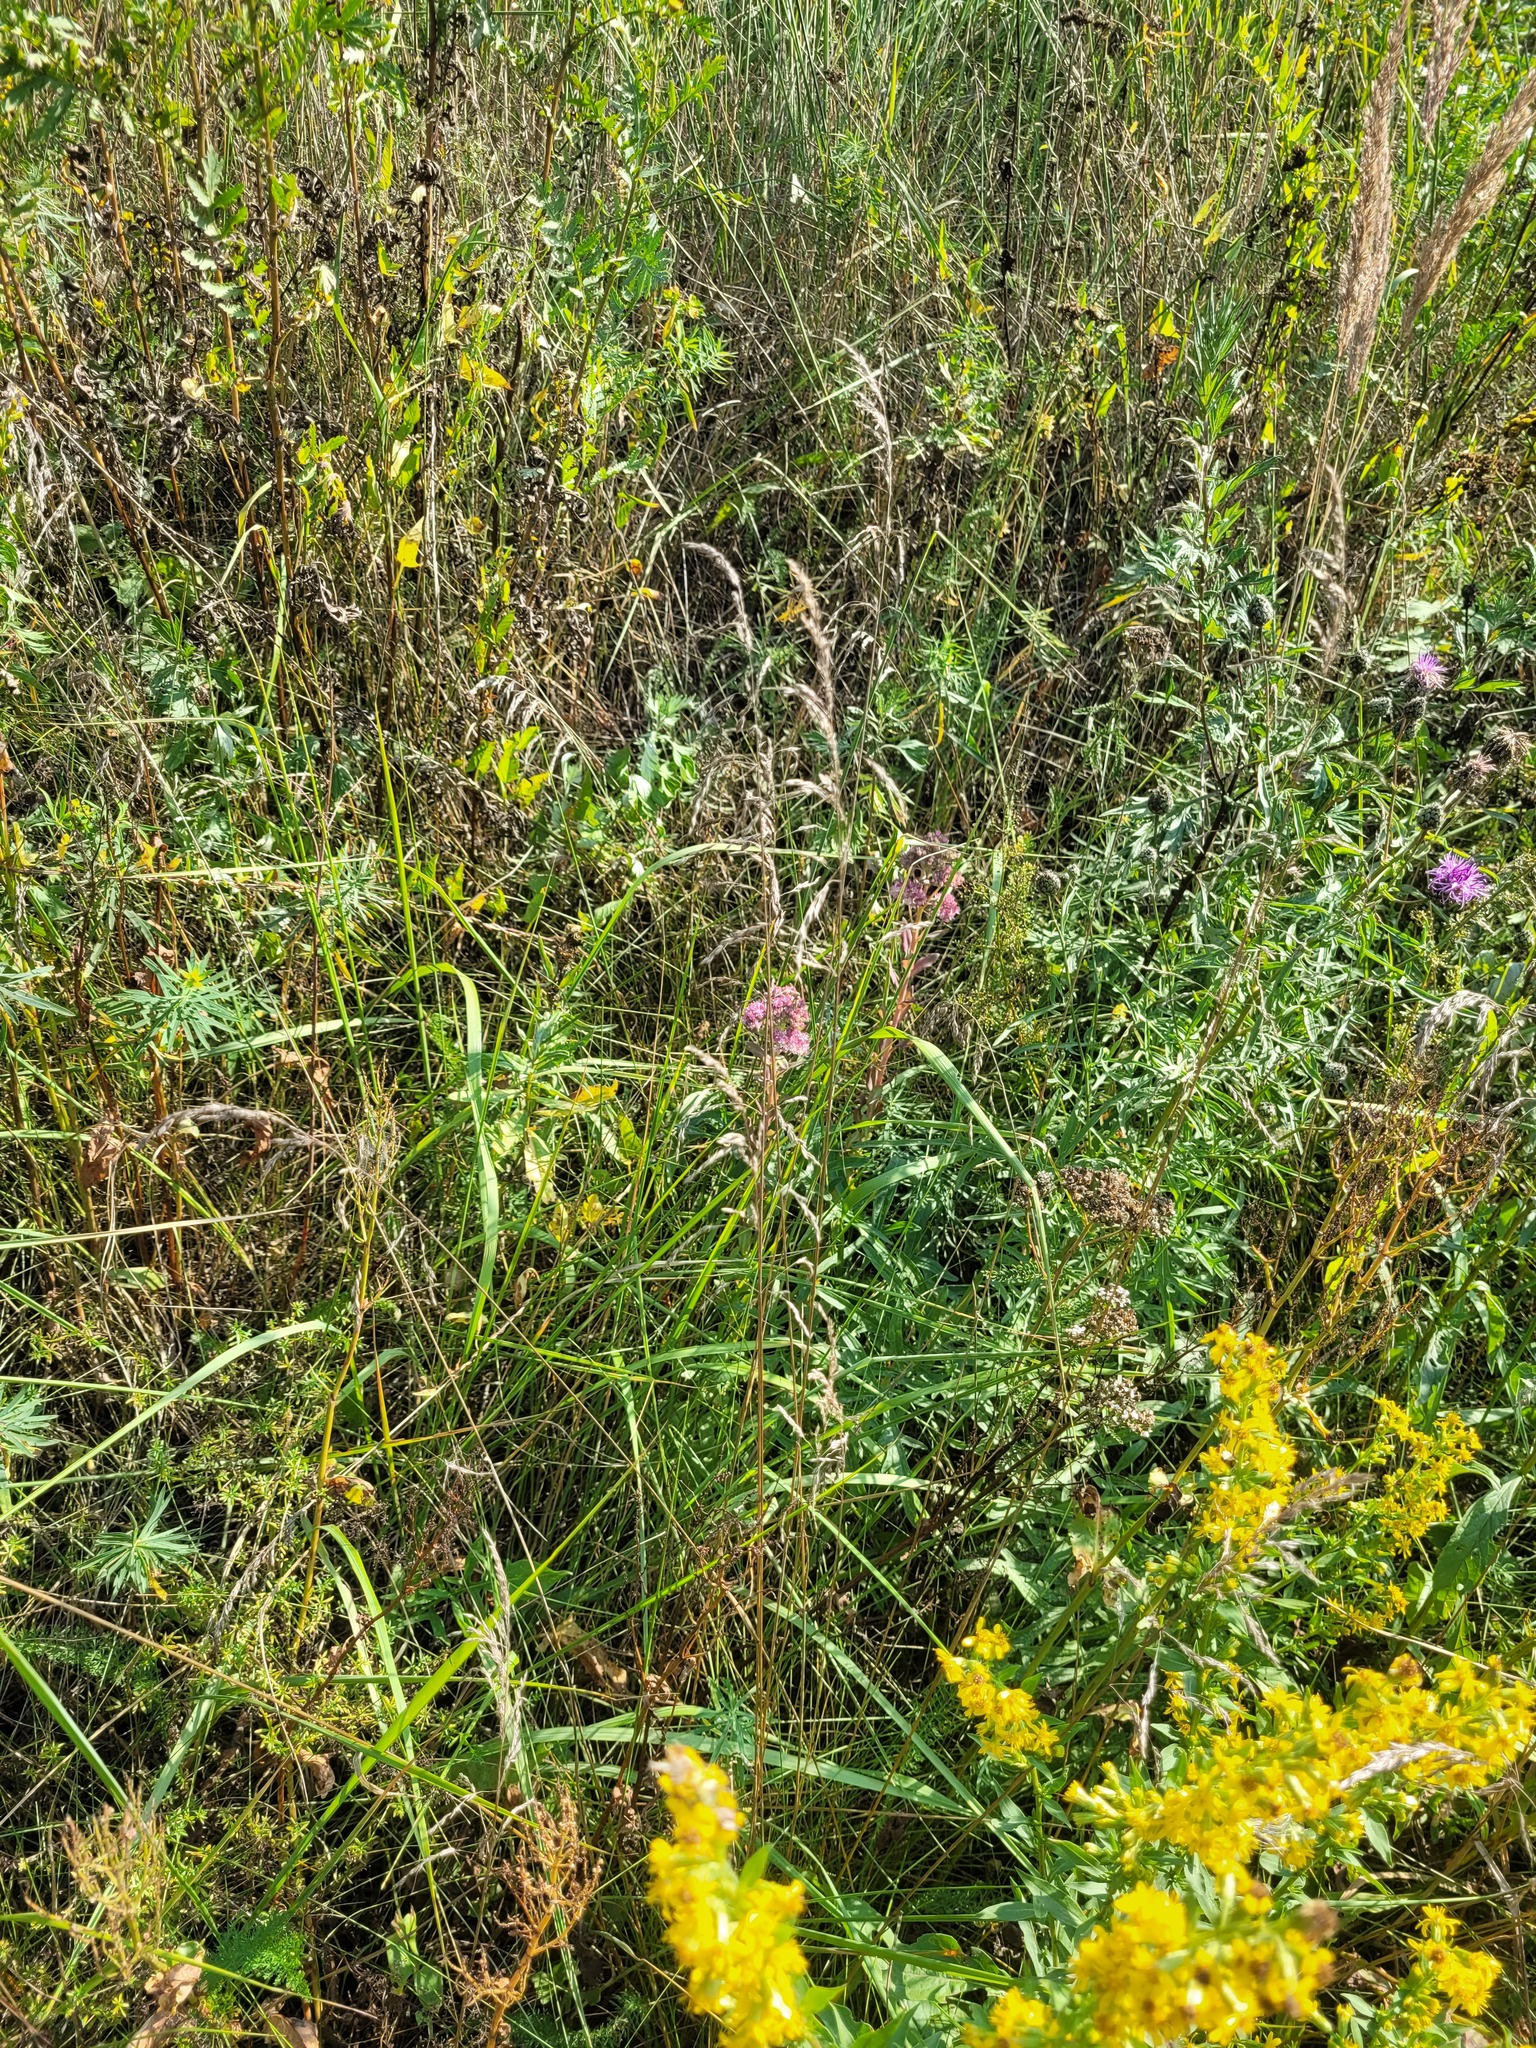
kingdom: Plantae
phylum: Tracheophyta
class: Liliopsida
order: Poales
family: Poaceae
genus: Lolium
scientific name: Lolium arundinaceum
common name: Reed fescue
